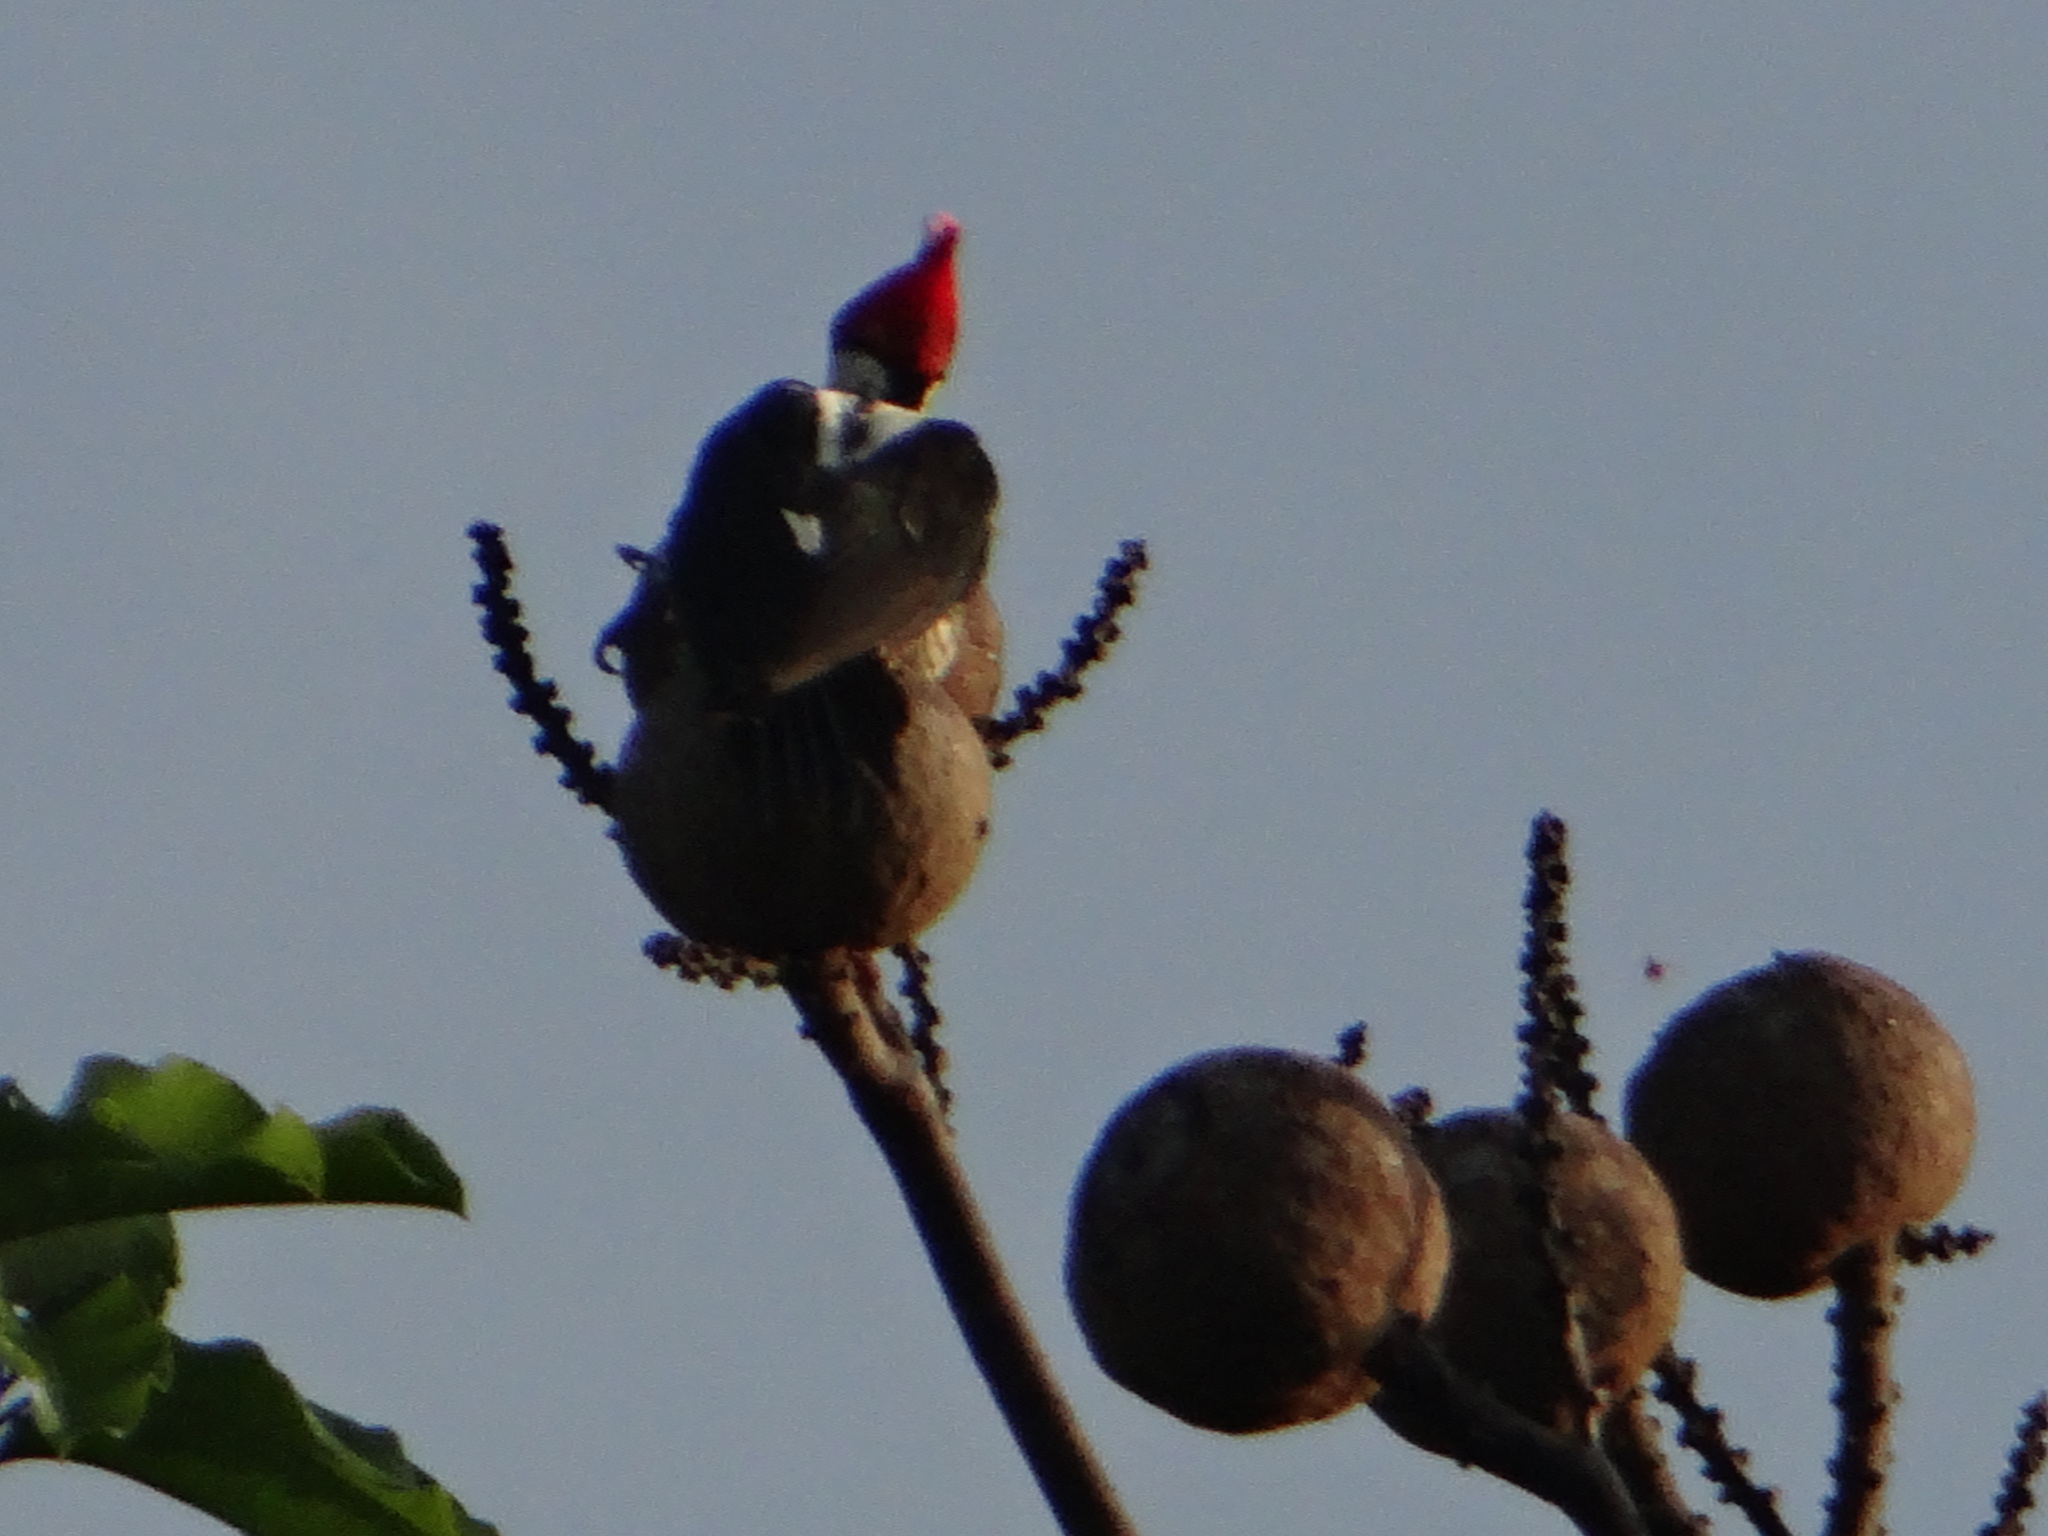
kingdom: Animalia
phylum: Chordata
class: Aves
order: Piciformes
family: Picidae
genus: Campephilus
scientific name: Campephilus melanoleucos
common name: Crimson-crested woodpecker
